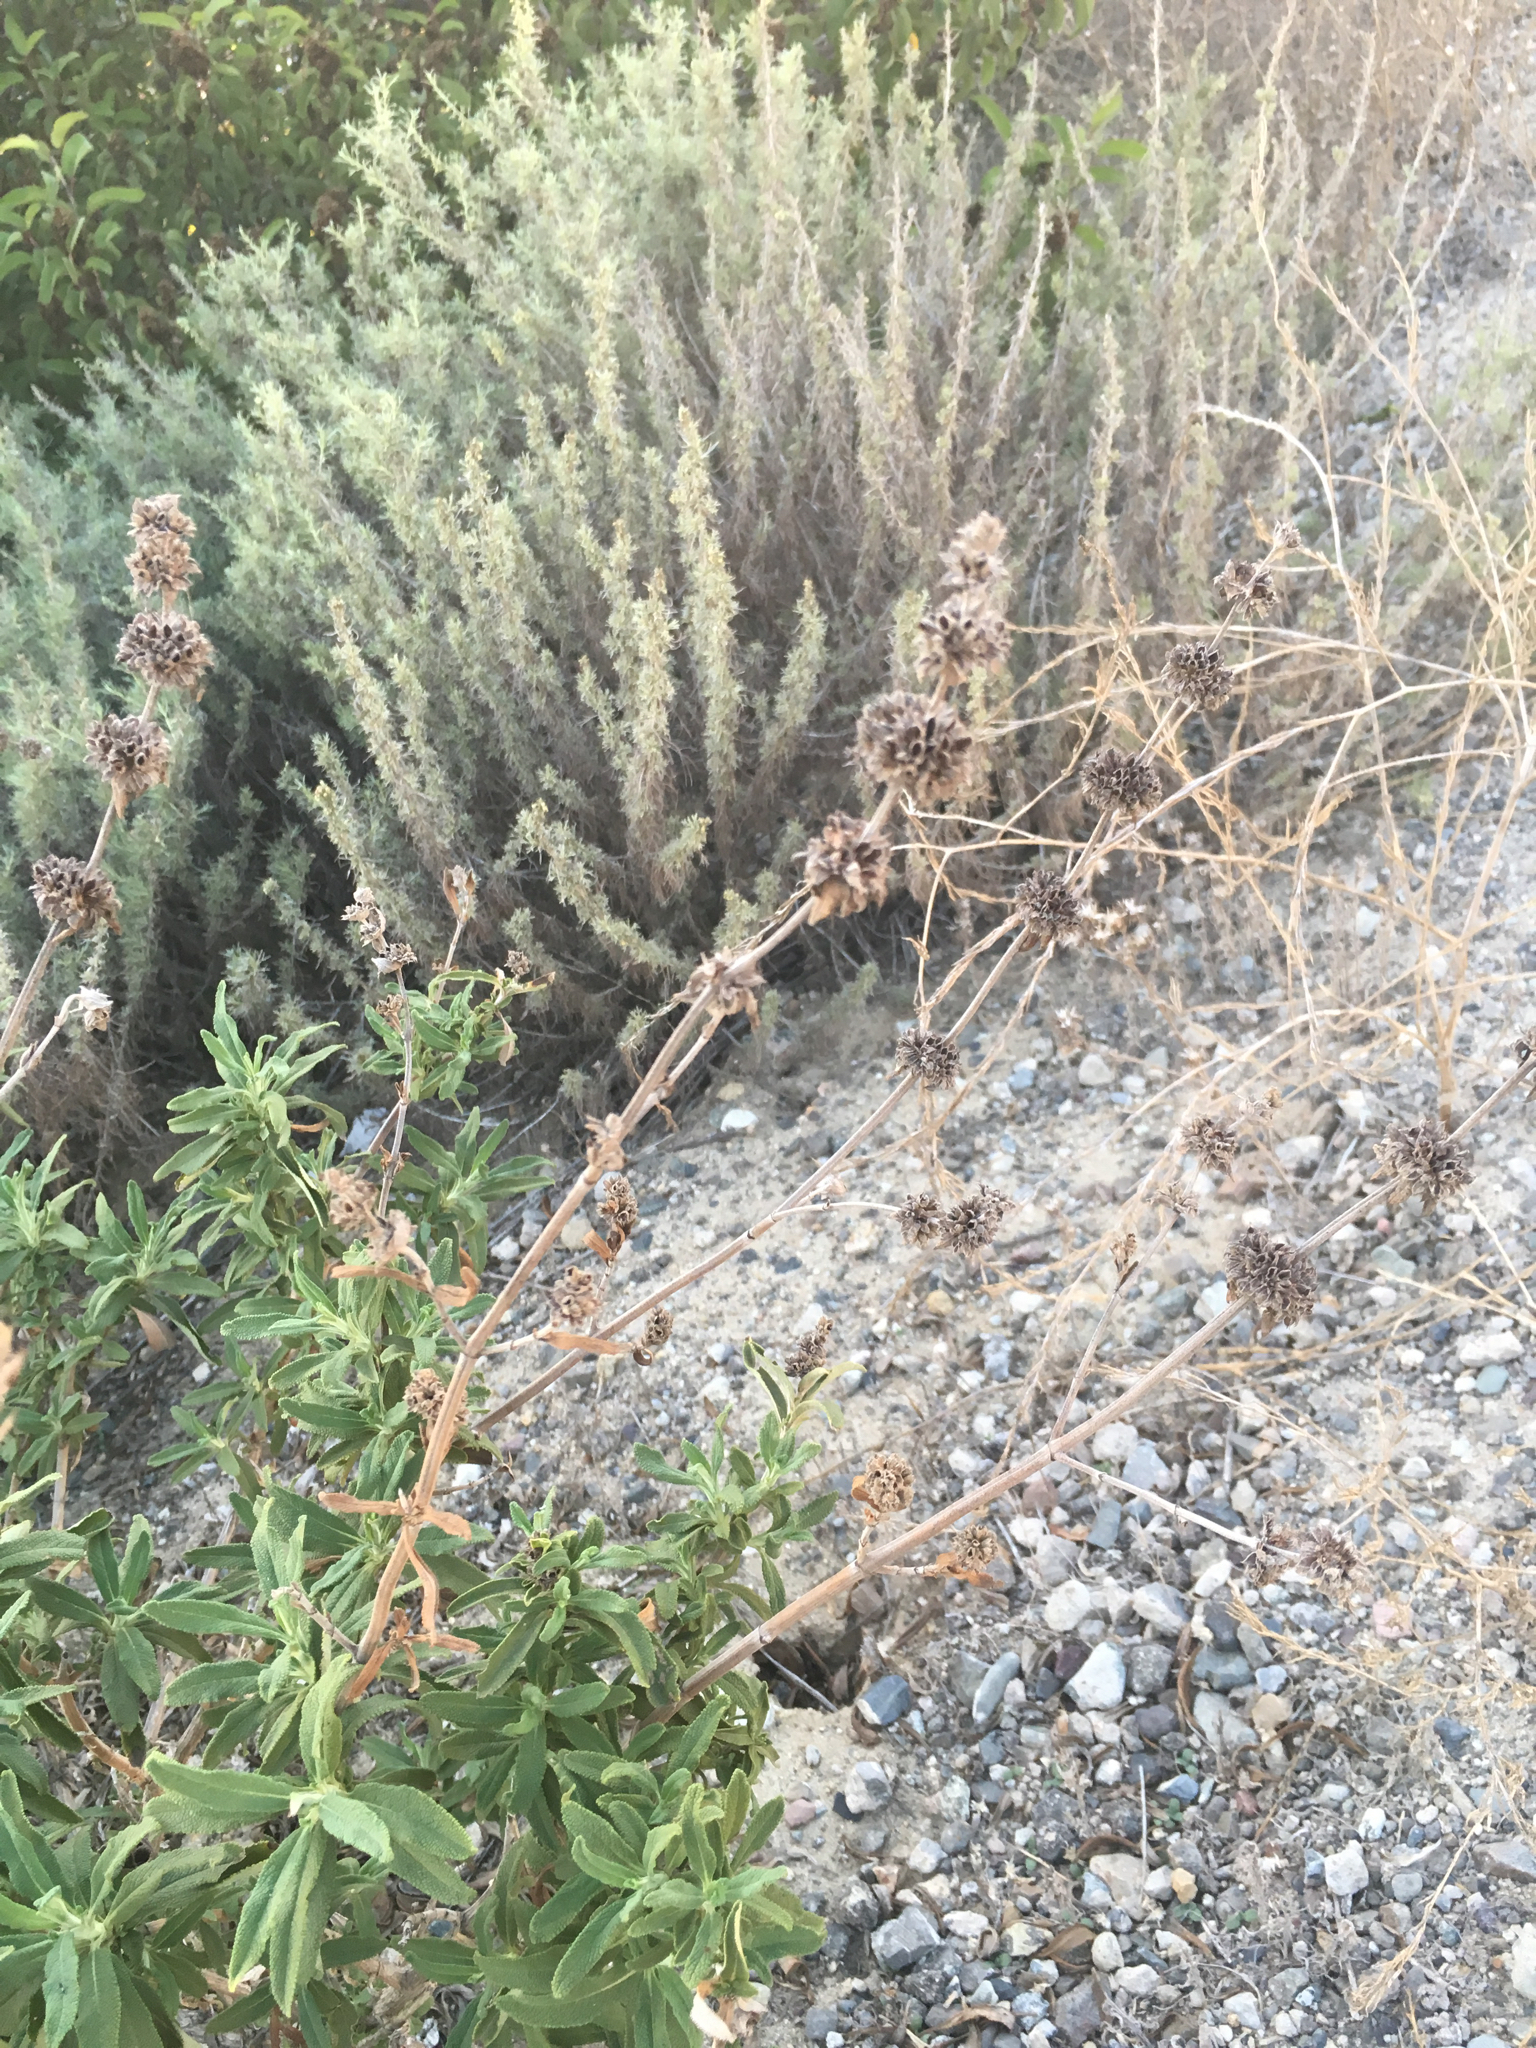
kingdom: Plantae
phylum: Tracheophyta
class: Magnoliopsida
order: Lamiales
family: Lamiaceae
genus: Salvia
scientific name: Salvia mellifera
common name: Black sage
